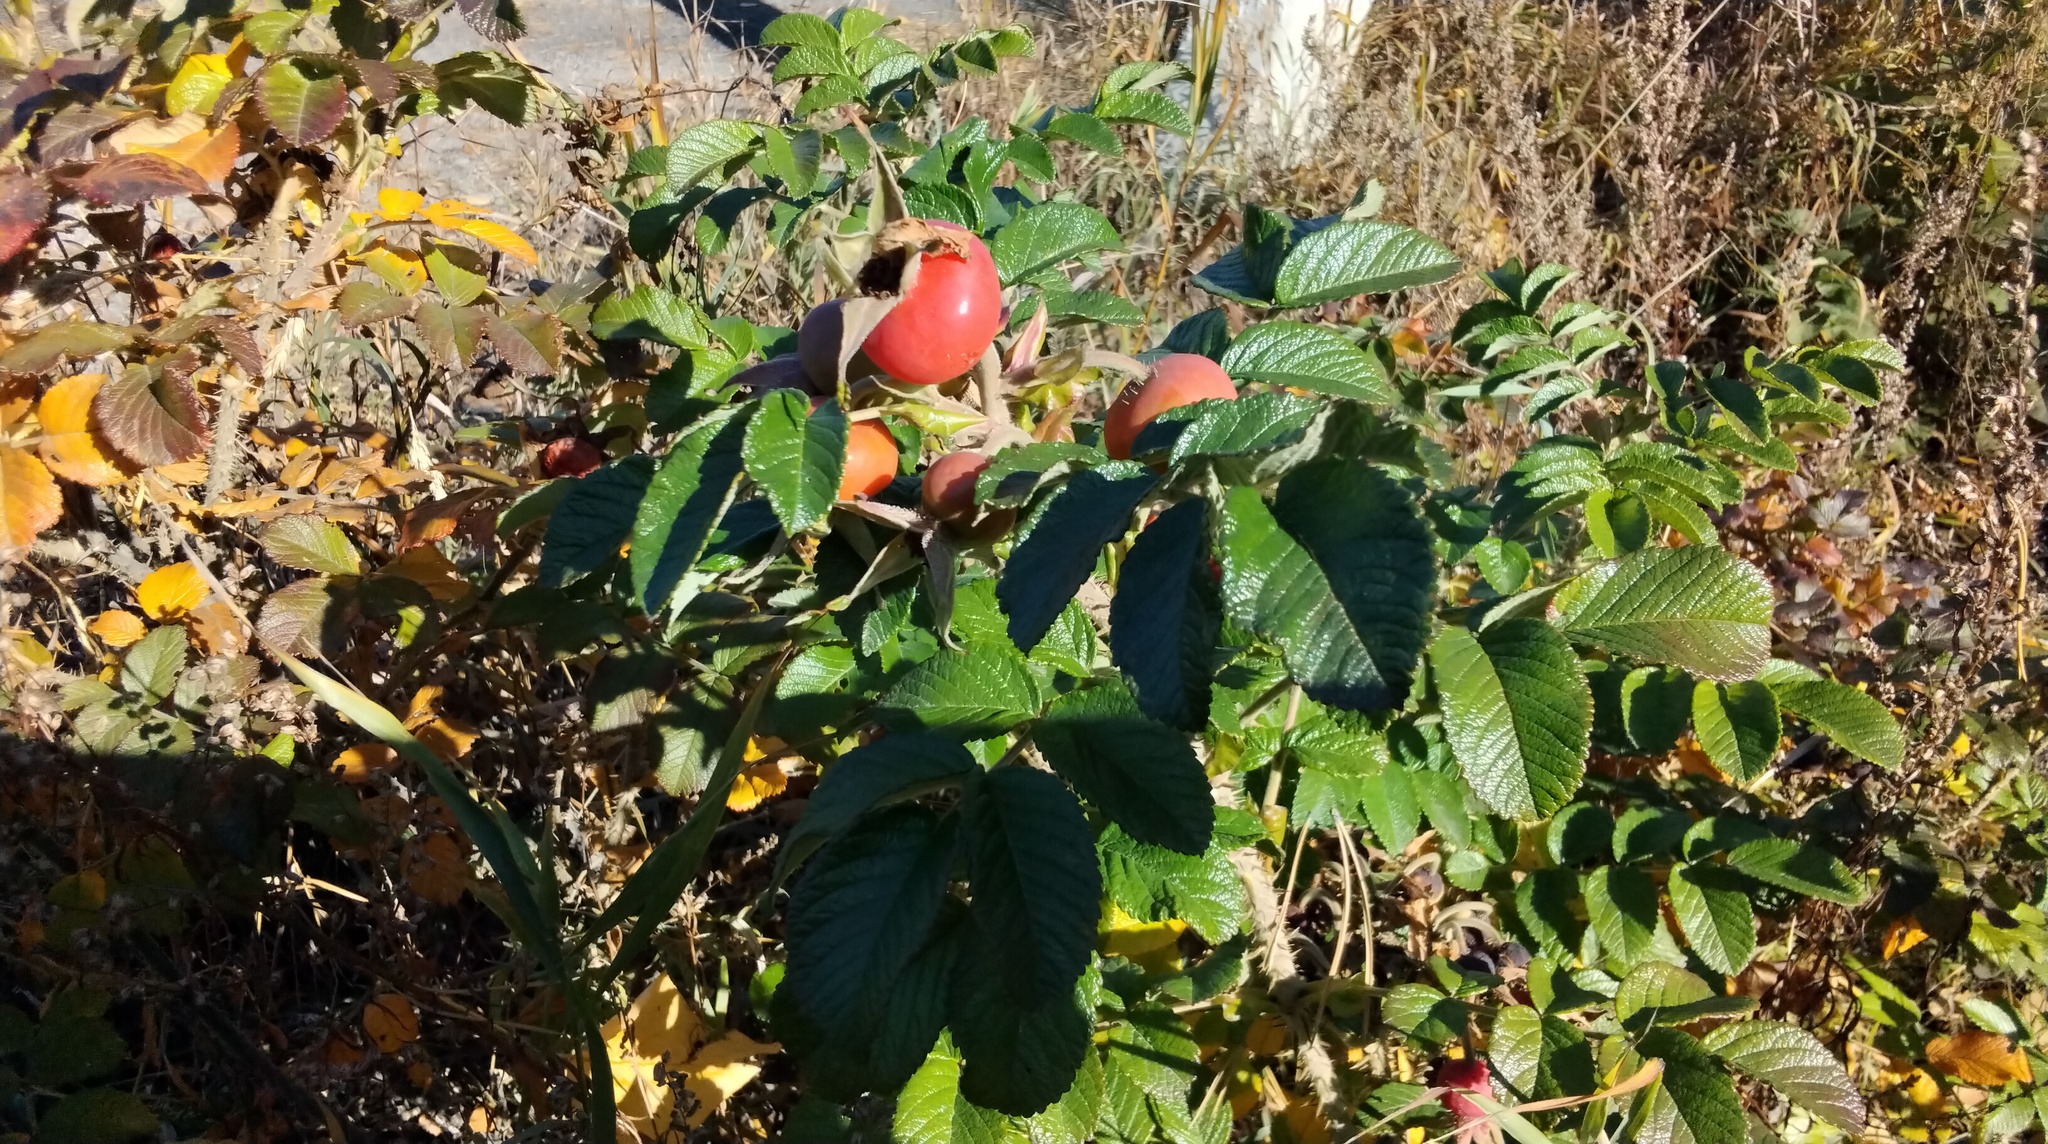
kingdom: Plantae
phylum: Tracheophyta
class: Magnoliopsida
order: Rosales
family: Rosaceae
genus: Rosa
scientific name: Rosa rugosa
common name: Japanese rose
